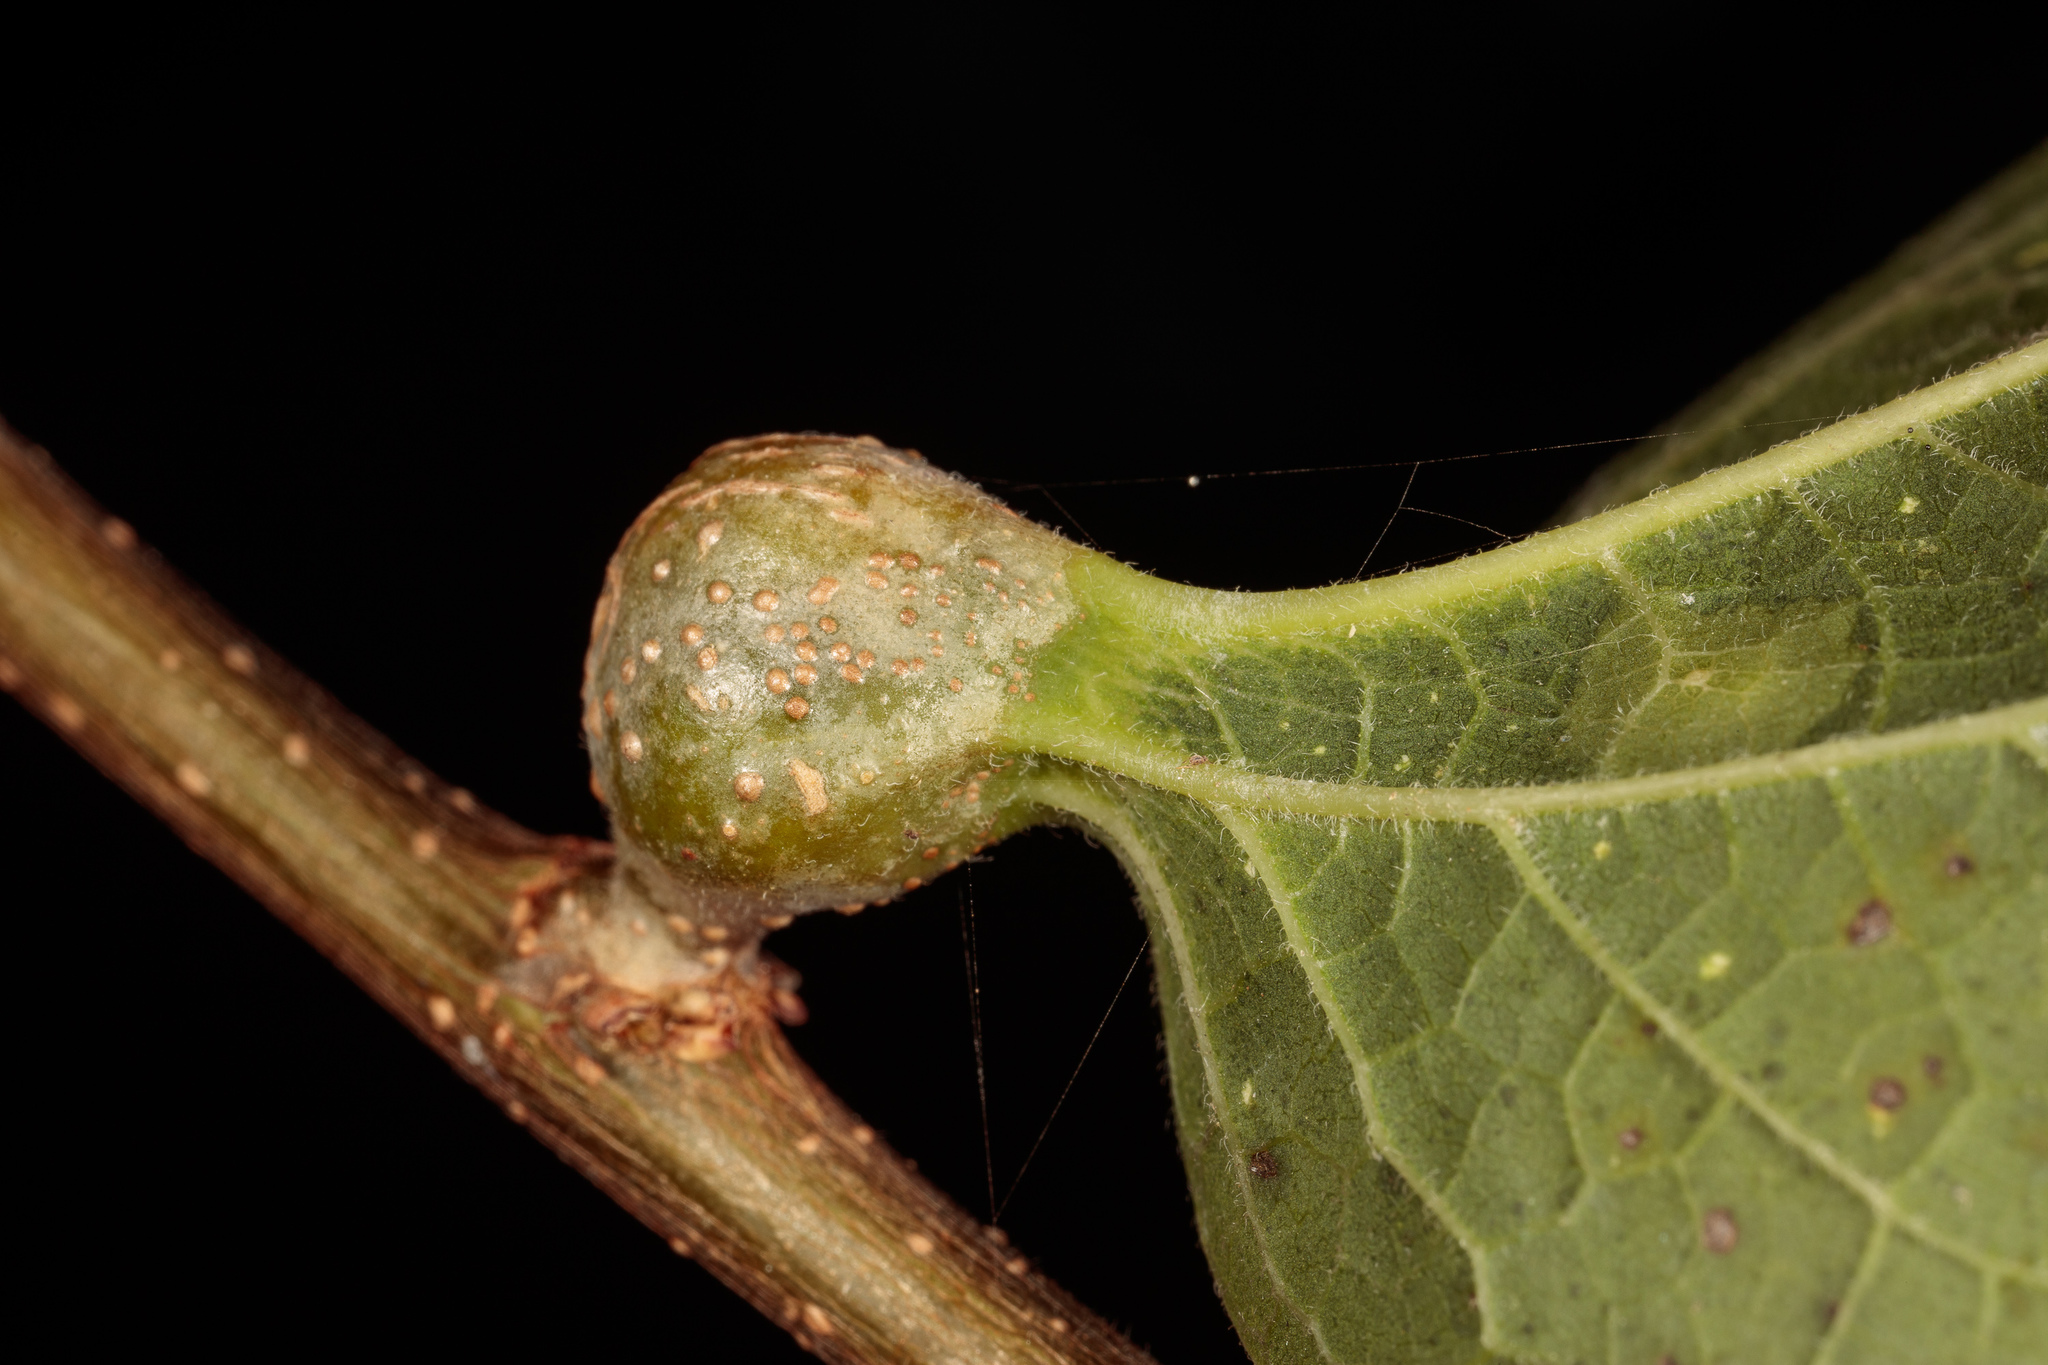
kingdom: Animalia
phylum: Arthropoda
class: Insecta
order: Hemiptera
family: Aphalaridae
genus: Pachypsylla
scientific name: Pachypsylla venusta
